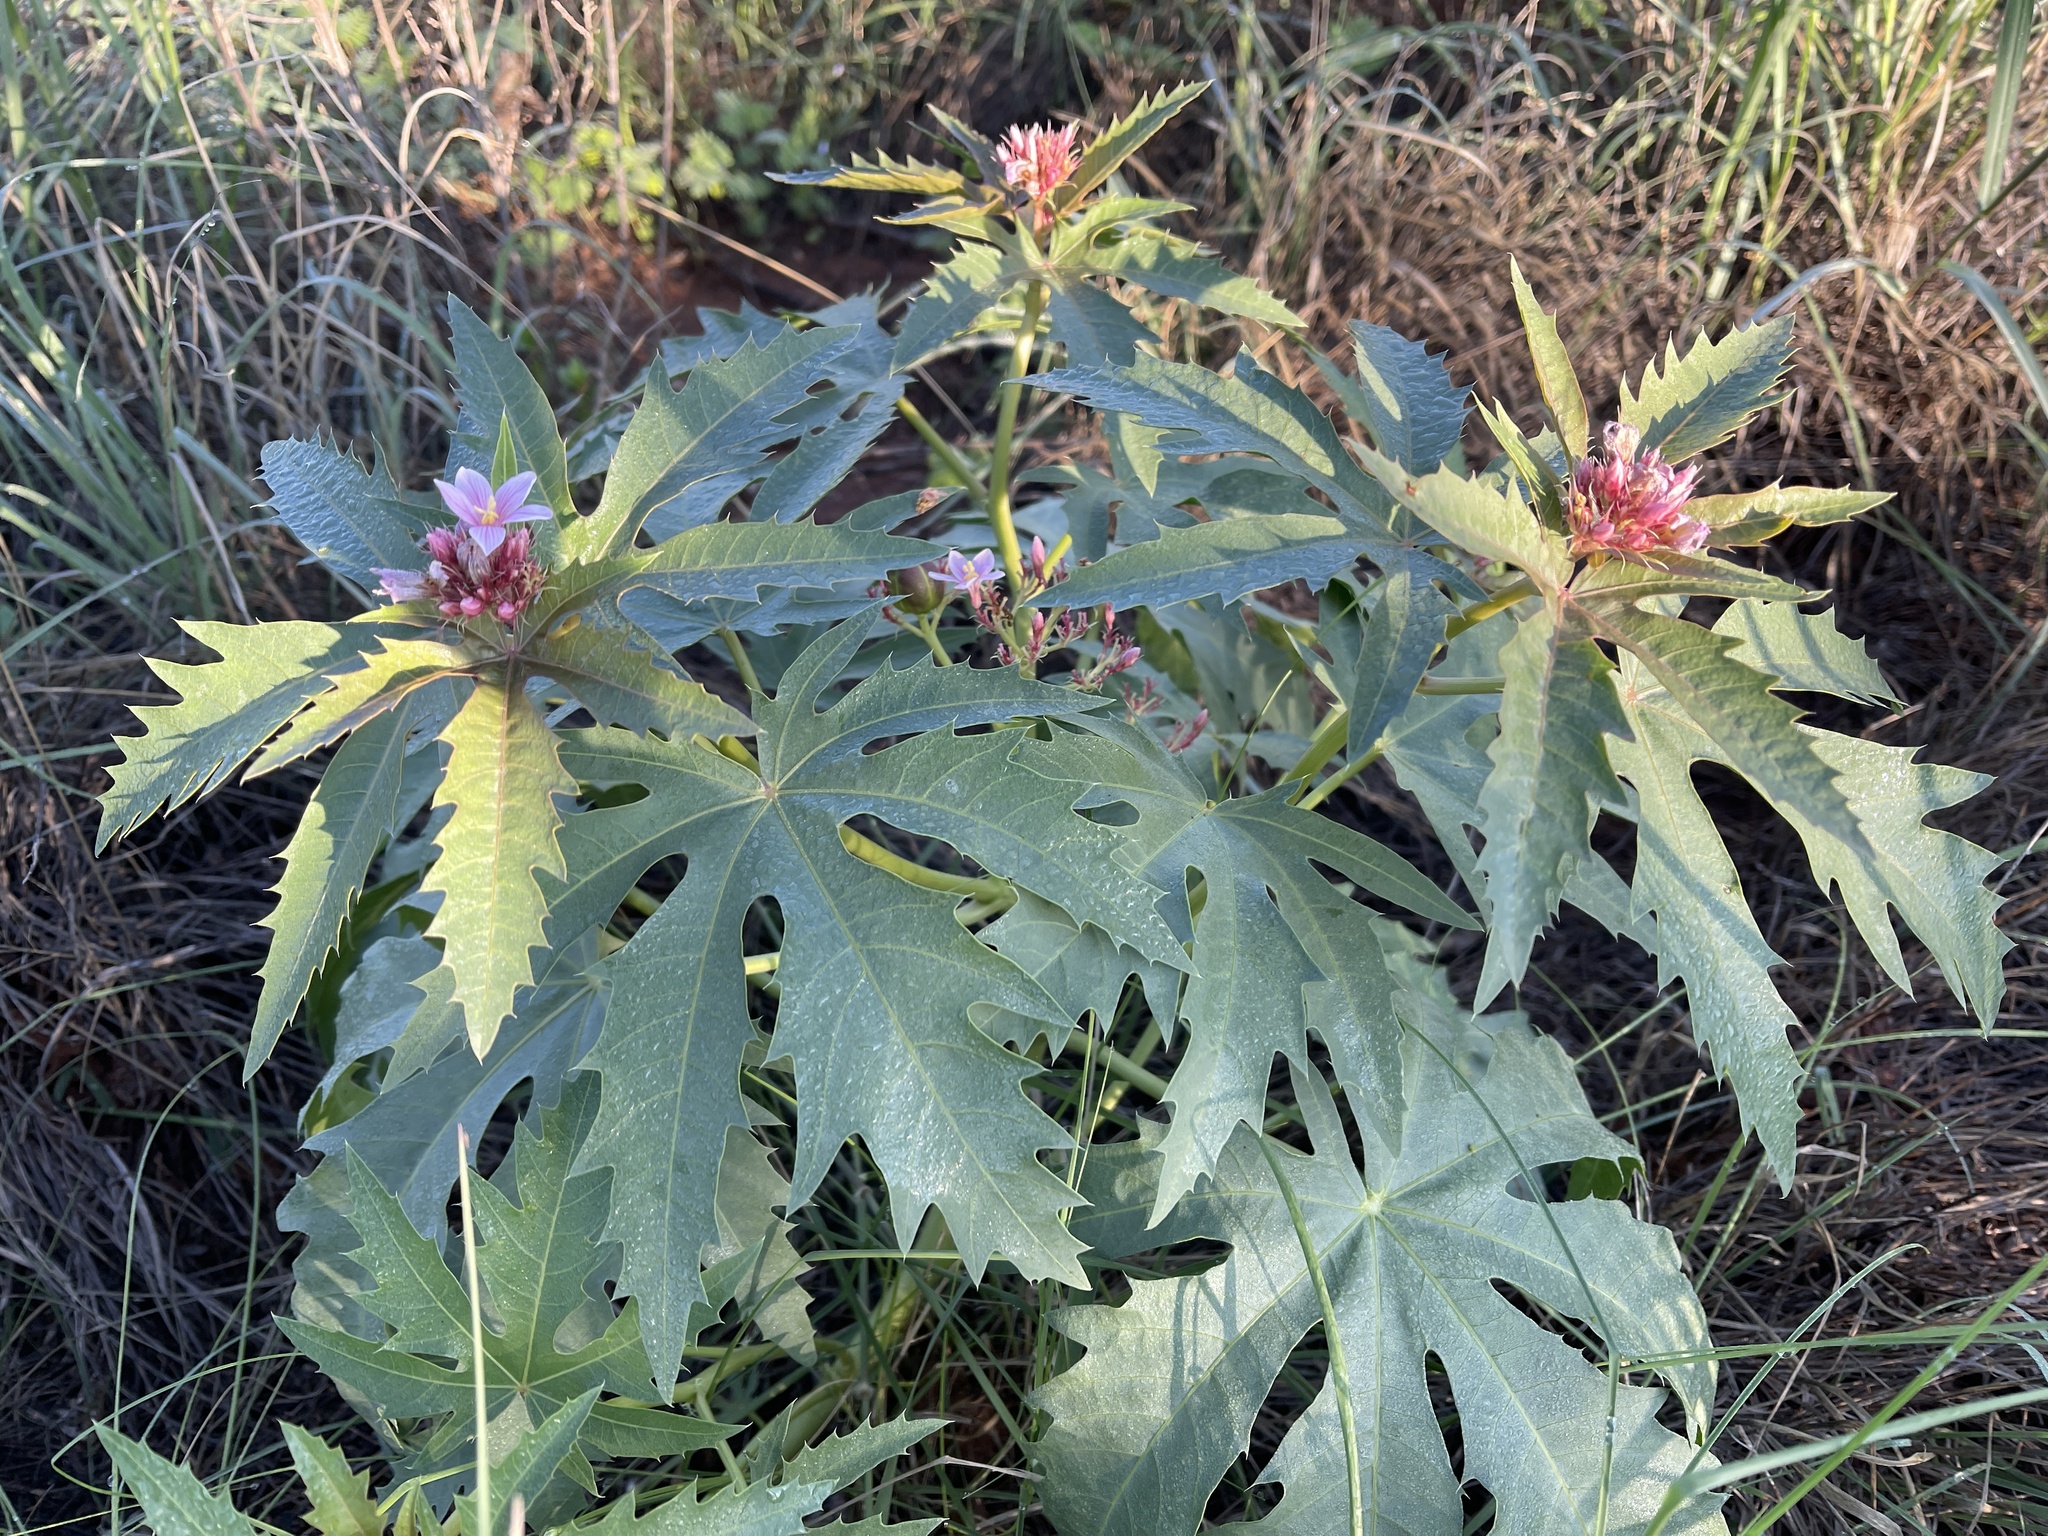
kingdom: Plantae
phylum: Tracheophyta
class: Magnoliopsida
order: Malpighiales
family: Euphorbiaceae
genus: Jatropha
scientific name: Jatropha macrorhiza
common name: Ragged nettlespurge
